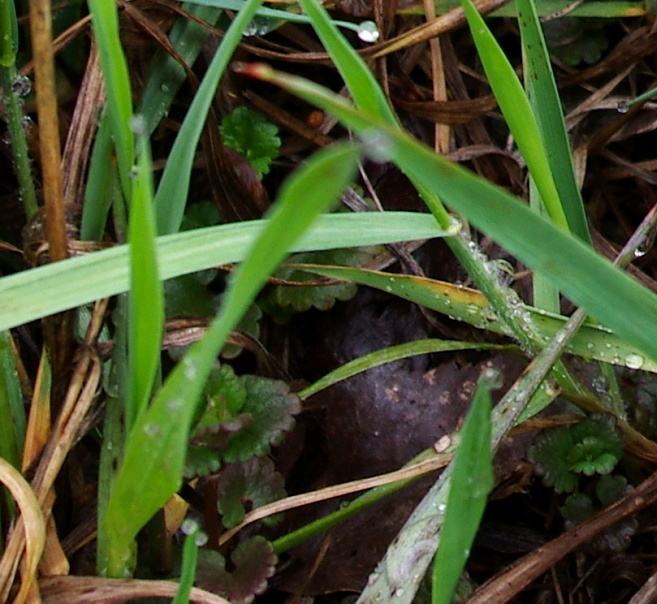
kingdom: Plantae
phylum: Tracheophyta
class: Magnoliopsida
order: Lamiales
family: Lamiaceae
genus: Glechoma
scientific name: Glechoma hederacea
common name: Ground ivy
